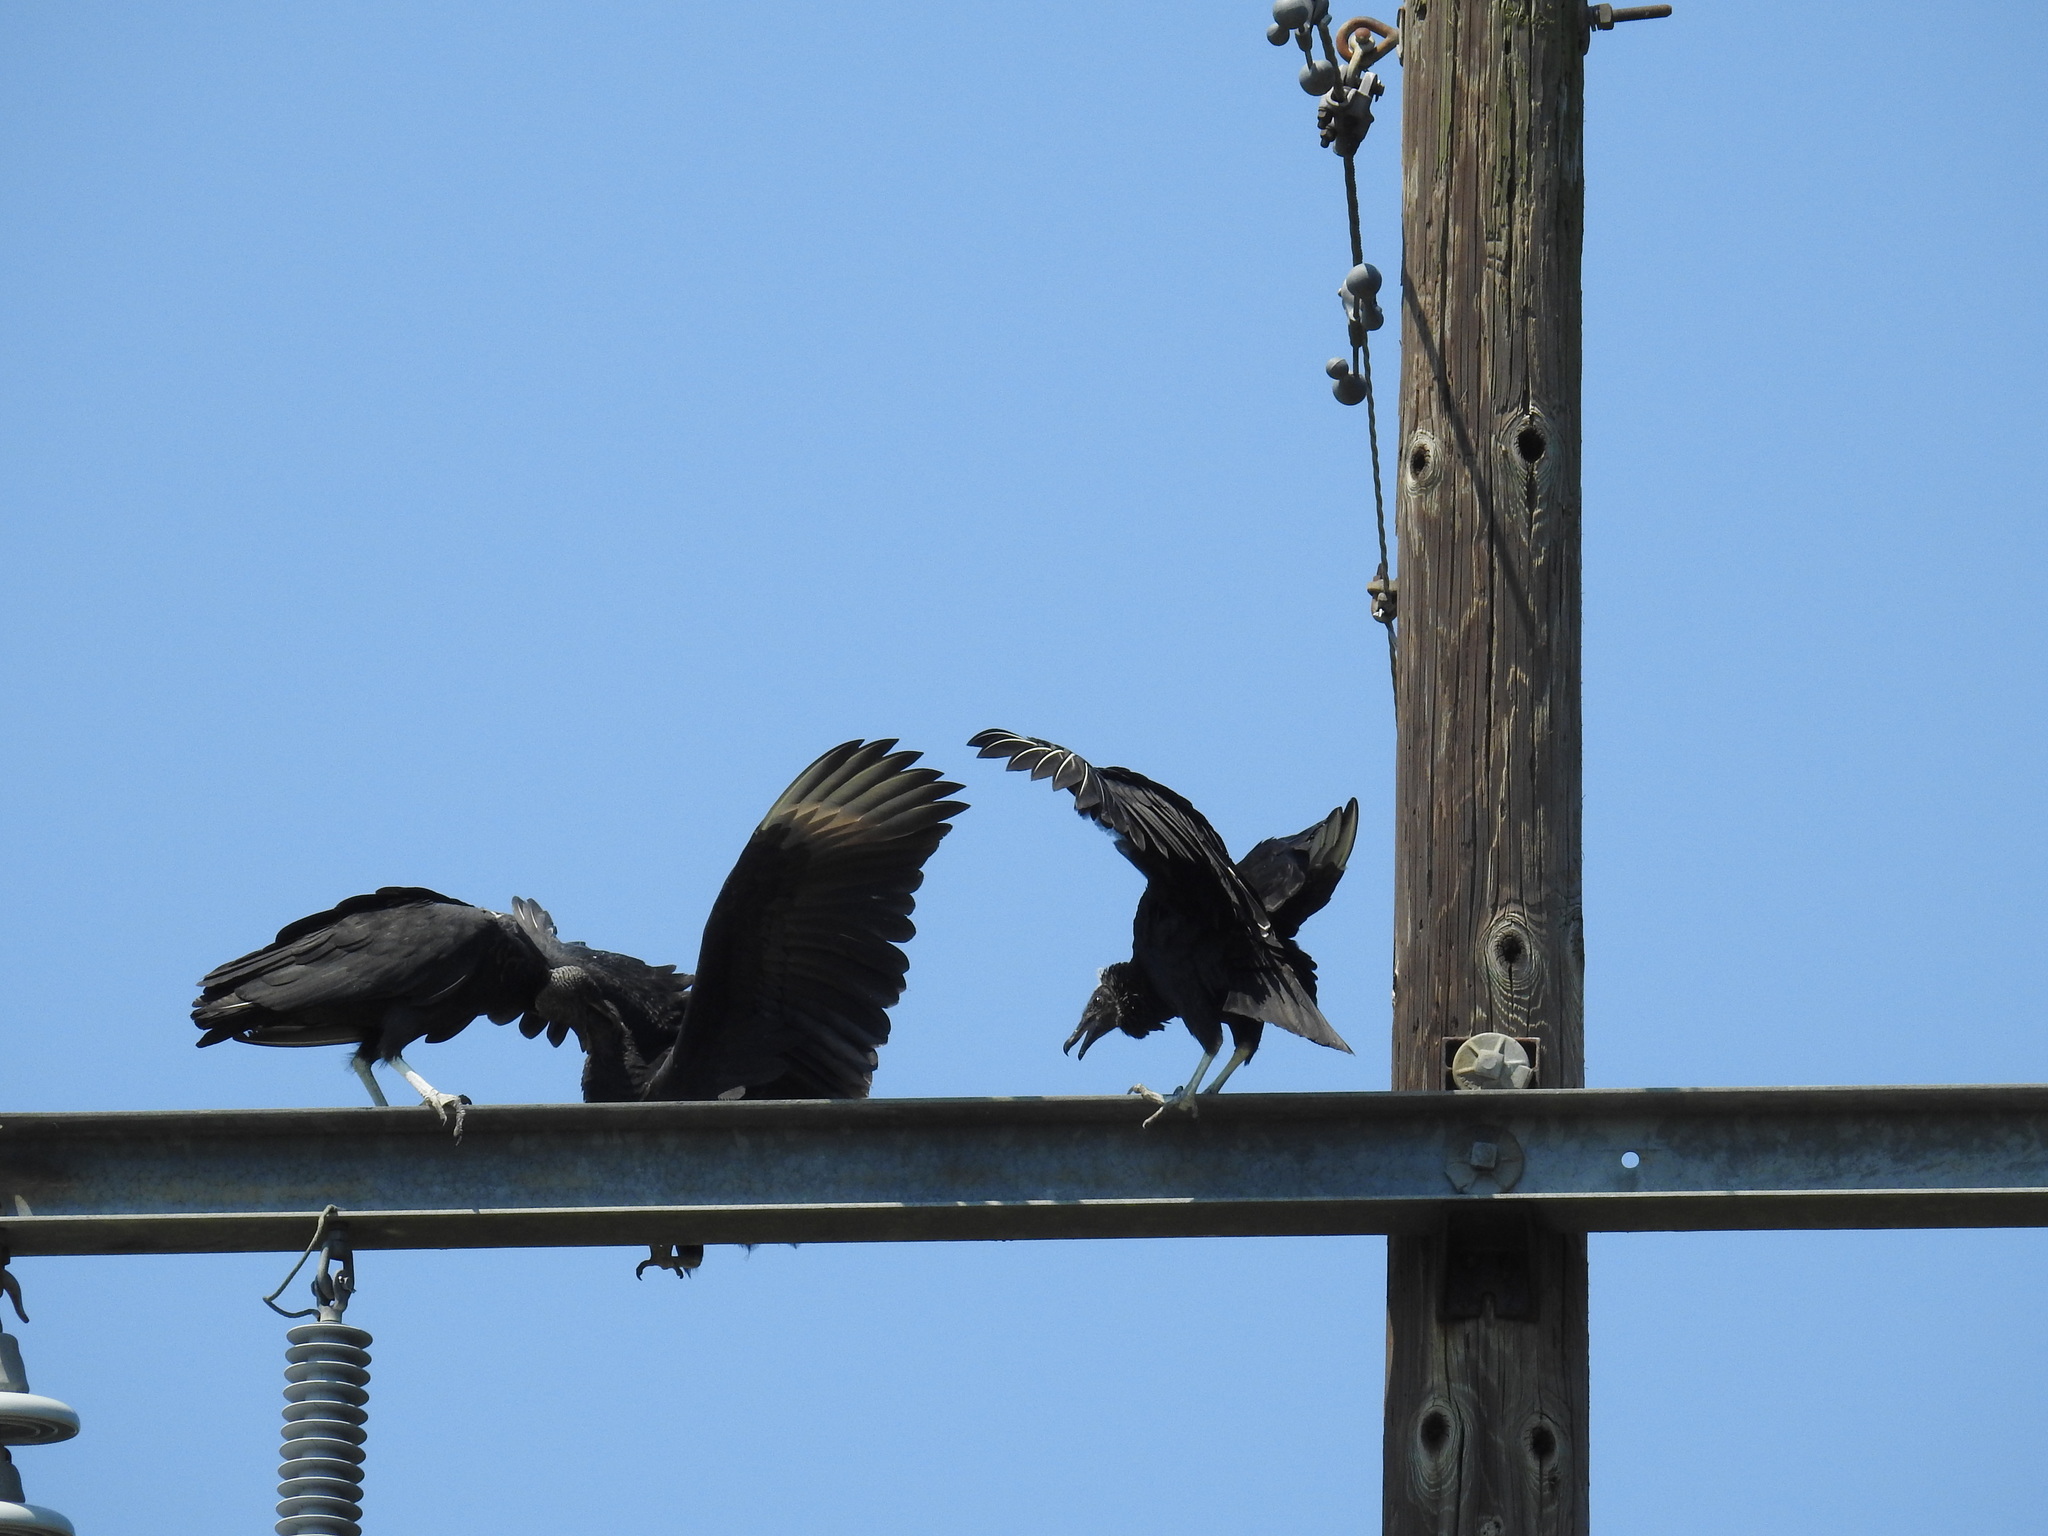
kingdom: Animalia
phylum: Chordata
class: Aves
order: Accipitriformes
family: Cathartidae
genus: Coragyps
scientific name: Coragyps atratus
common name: Black vulture
